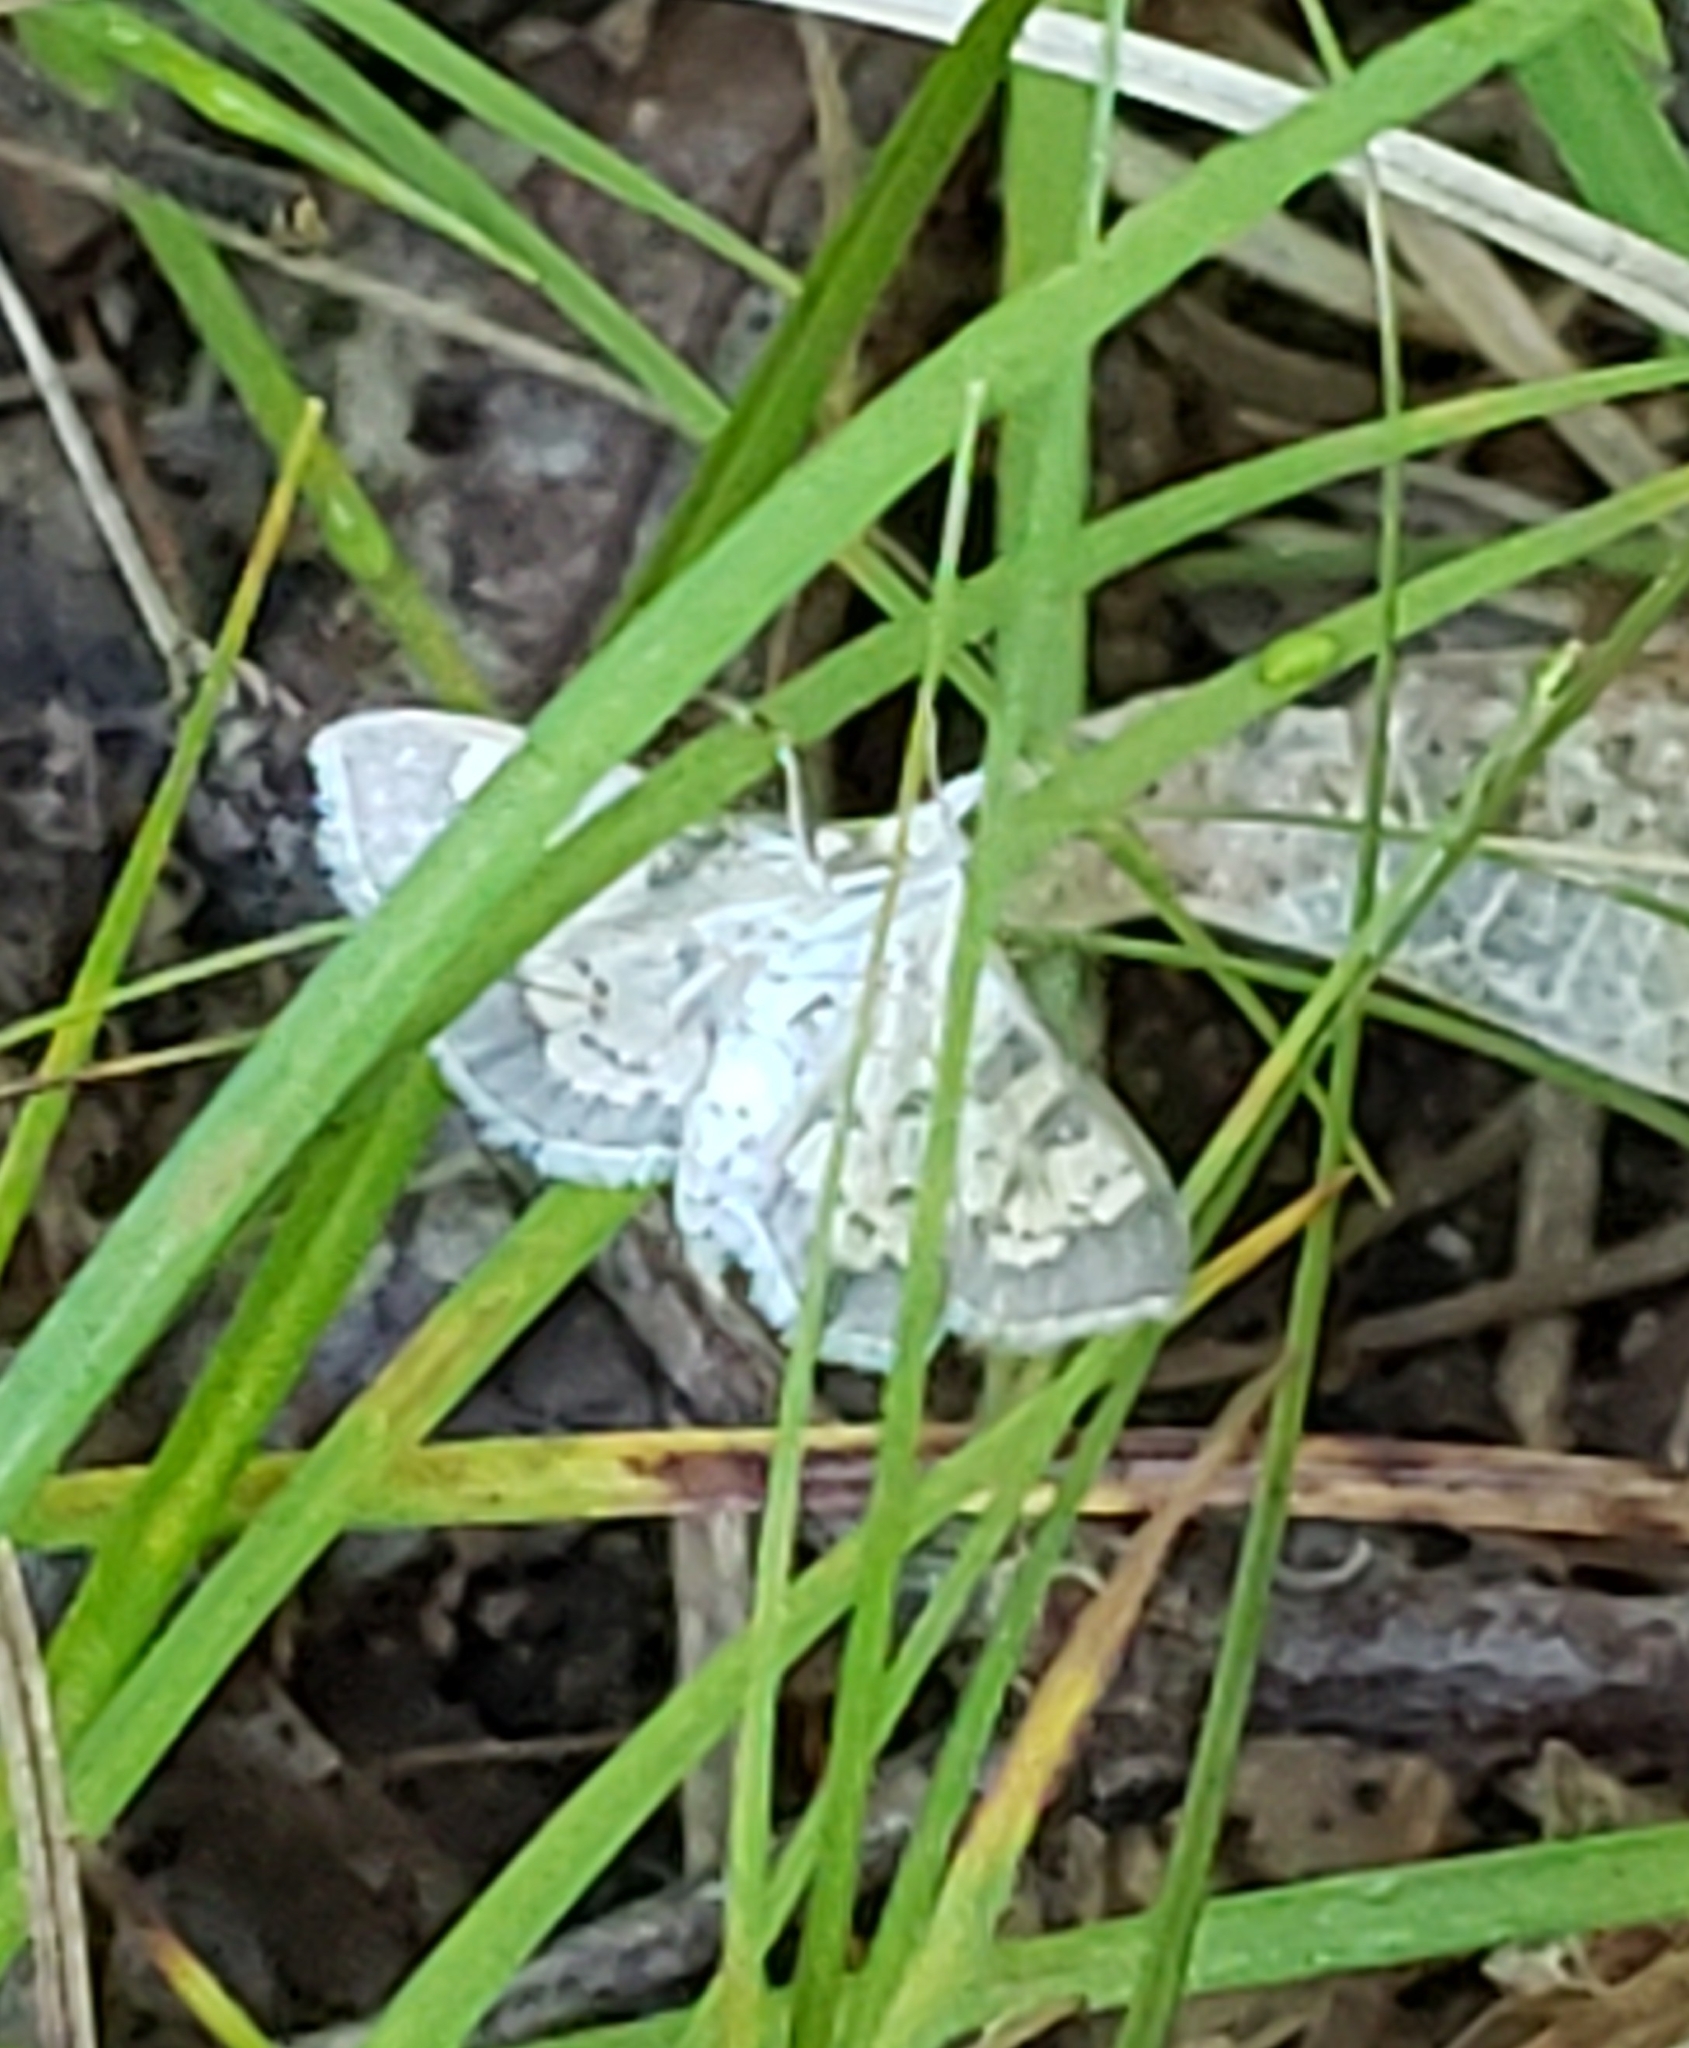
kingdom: Animalia
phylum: Arthropoda
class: Insecta
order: Lepidoptera
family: Crambidae
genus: Epipagis
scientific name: Epipagis adipaloides
